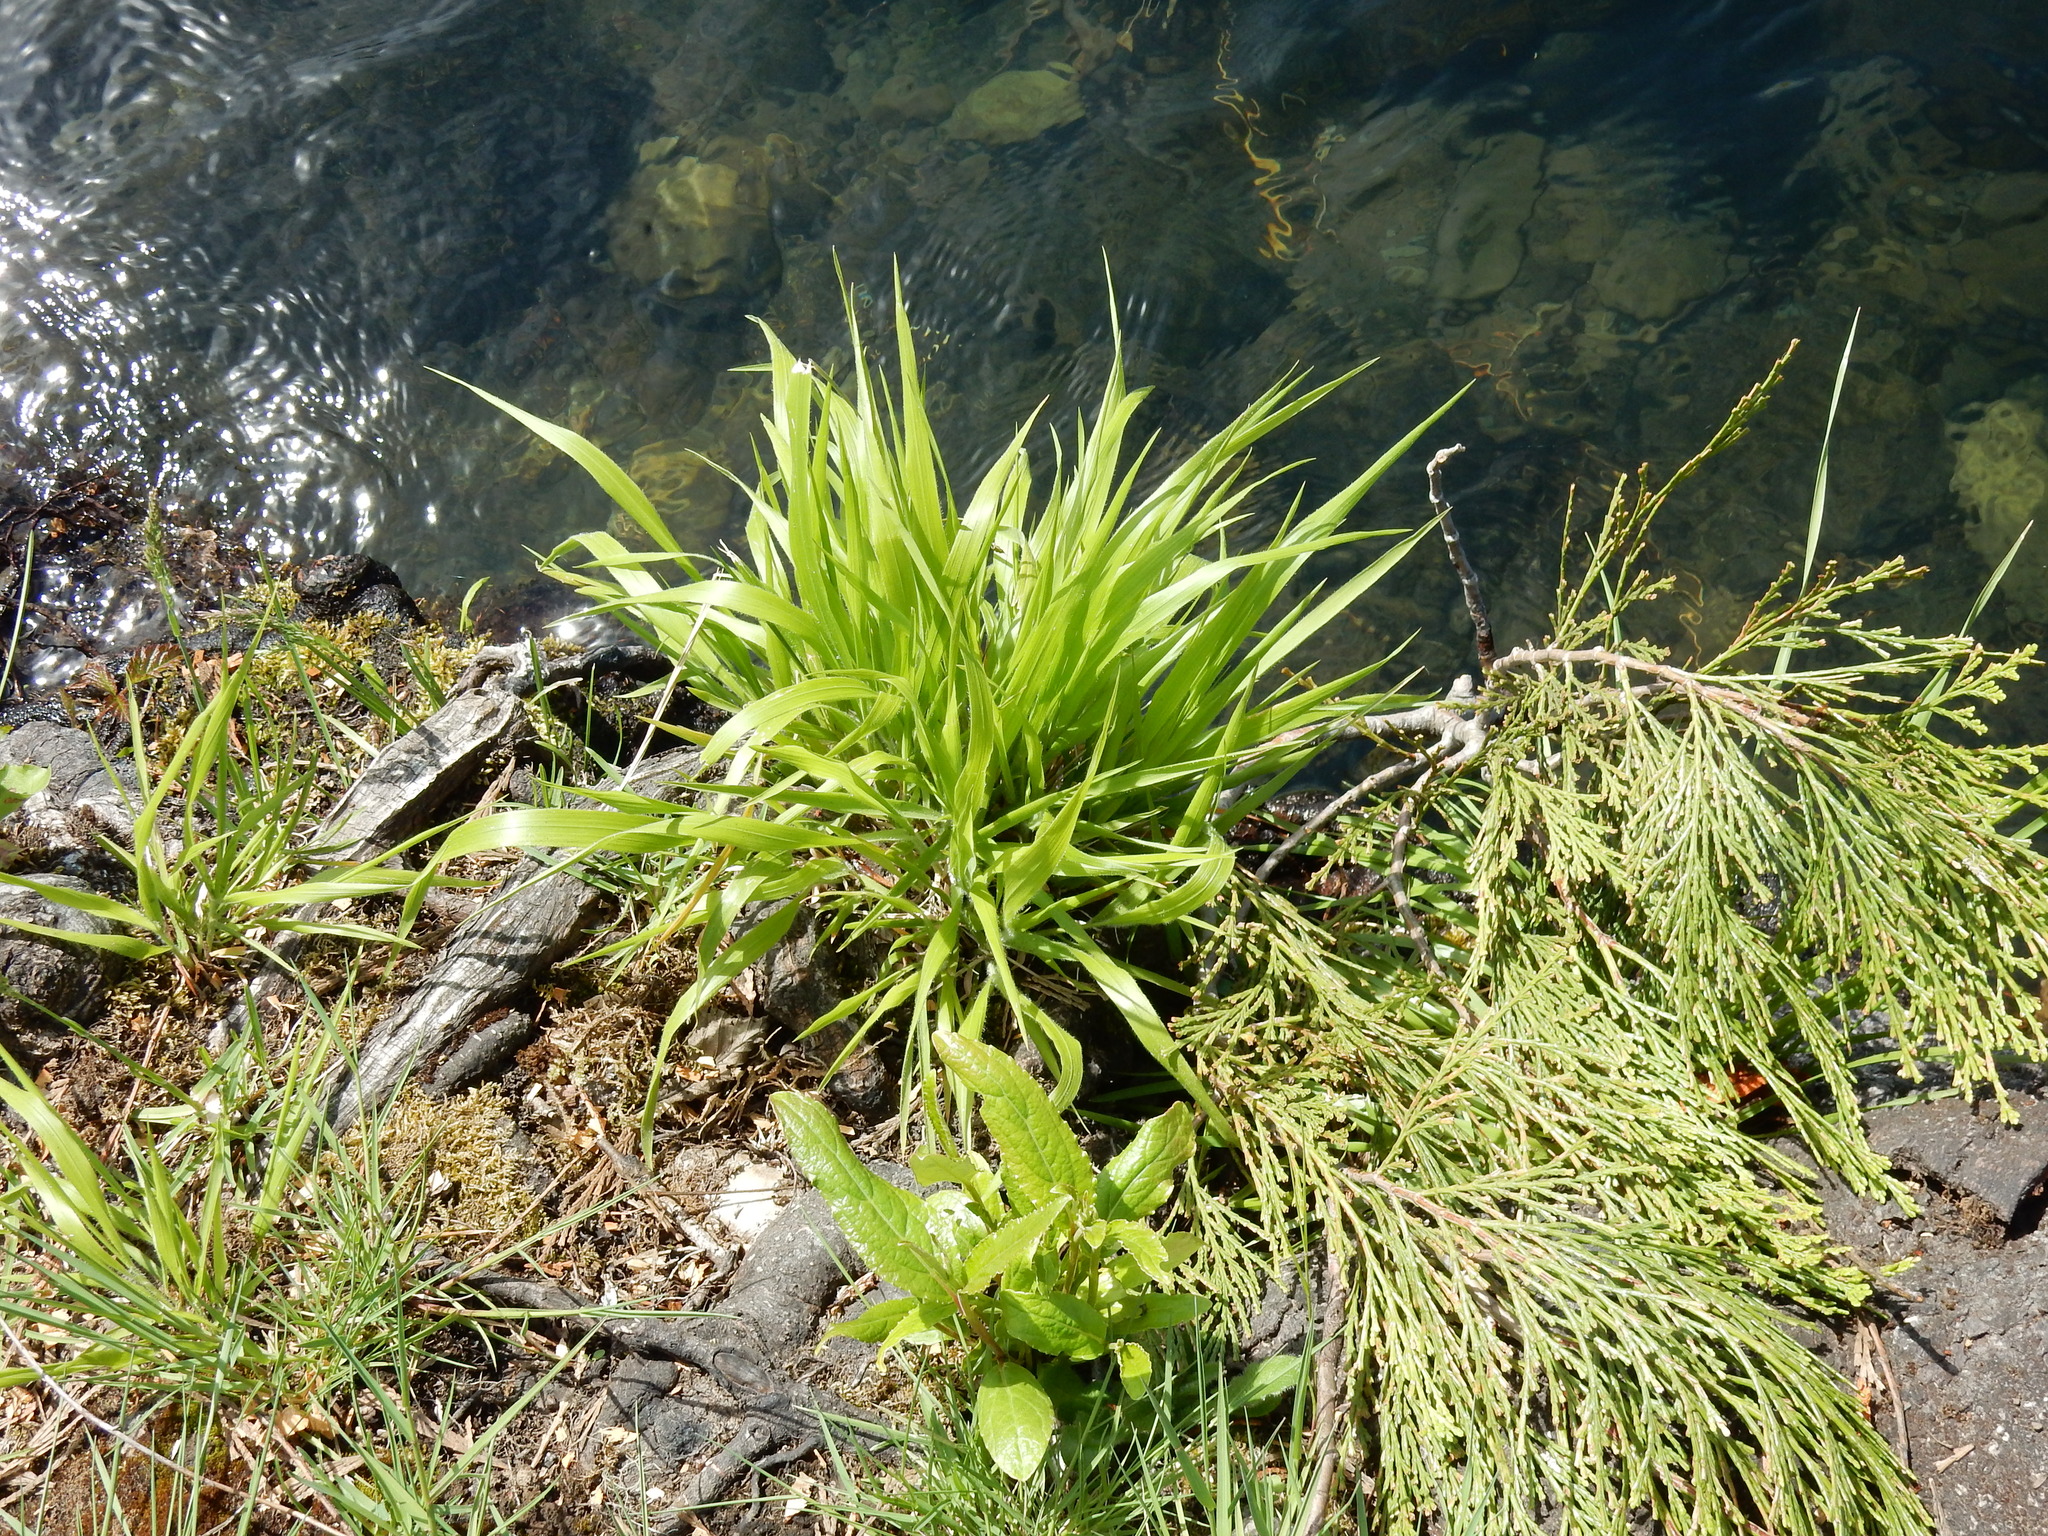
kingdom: Plantae
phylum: Tracheophyta
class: Liliopsida
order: Poales
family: Poaceae
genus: Brachypodium
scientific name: Brachypodium sylvaticum
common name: False-brome
